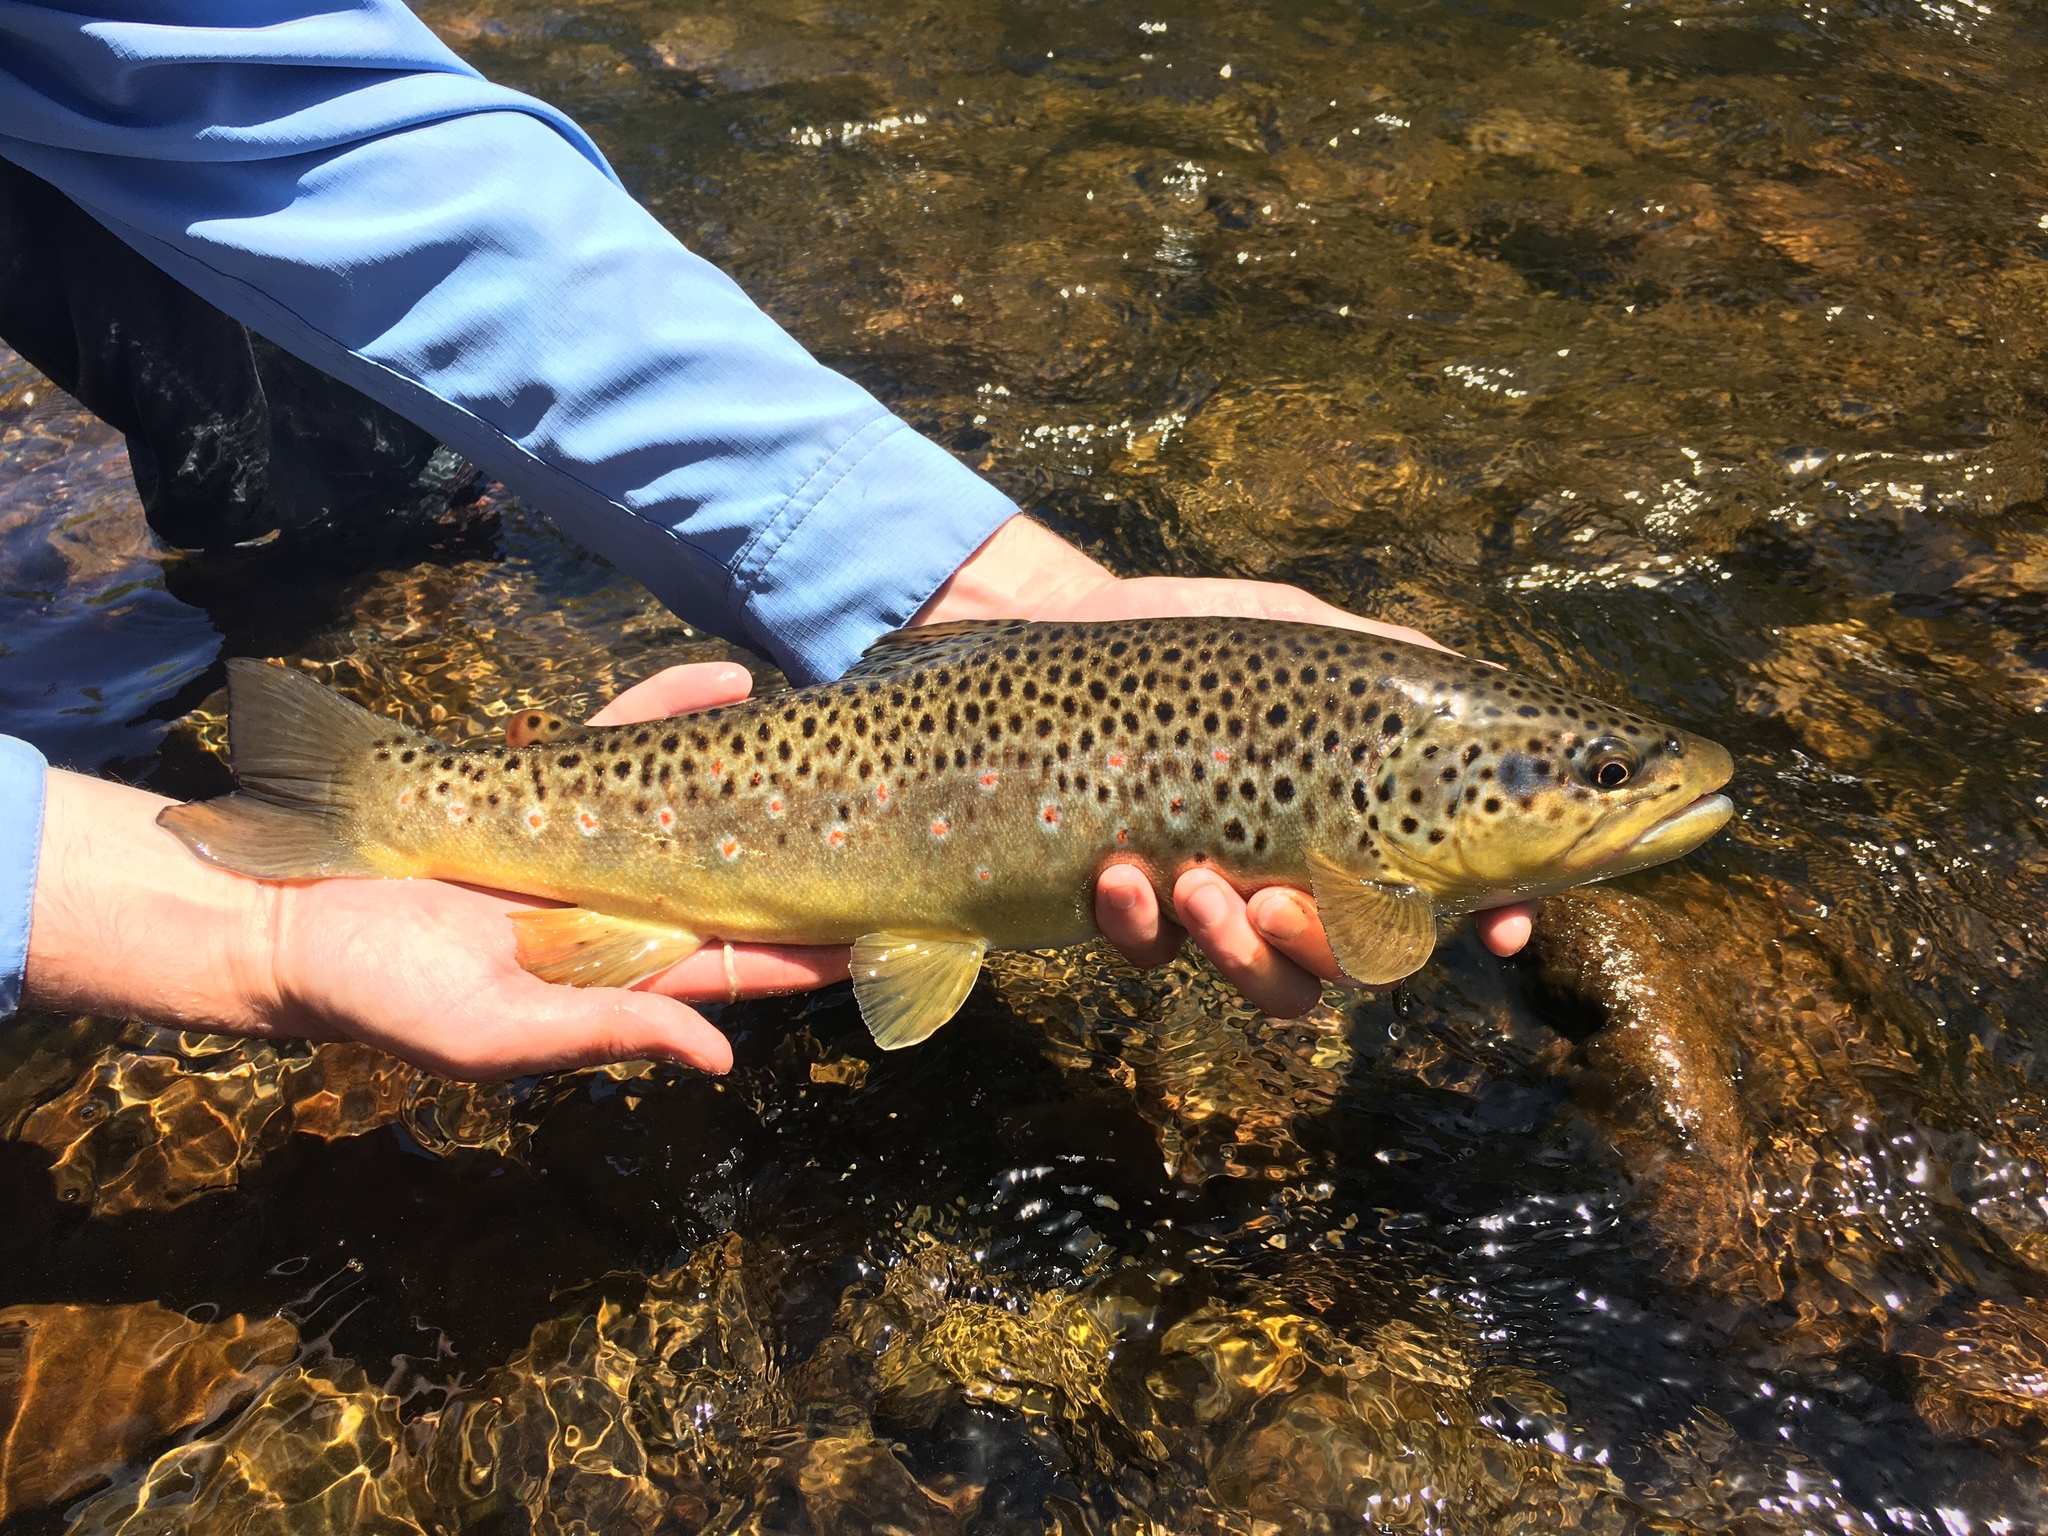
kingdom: Animalia
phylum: Chordata
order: Salmoniformes
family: Salmonidae
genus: Salmo
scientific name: Salmo trutta
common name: Brown trout
